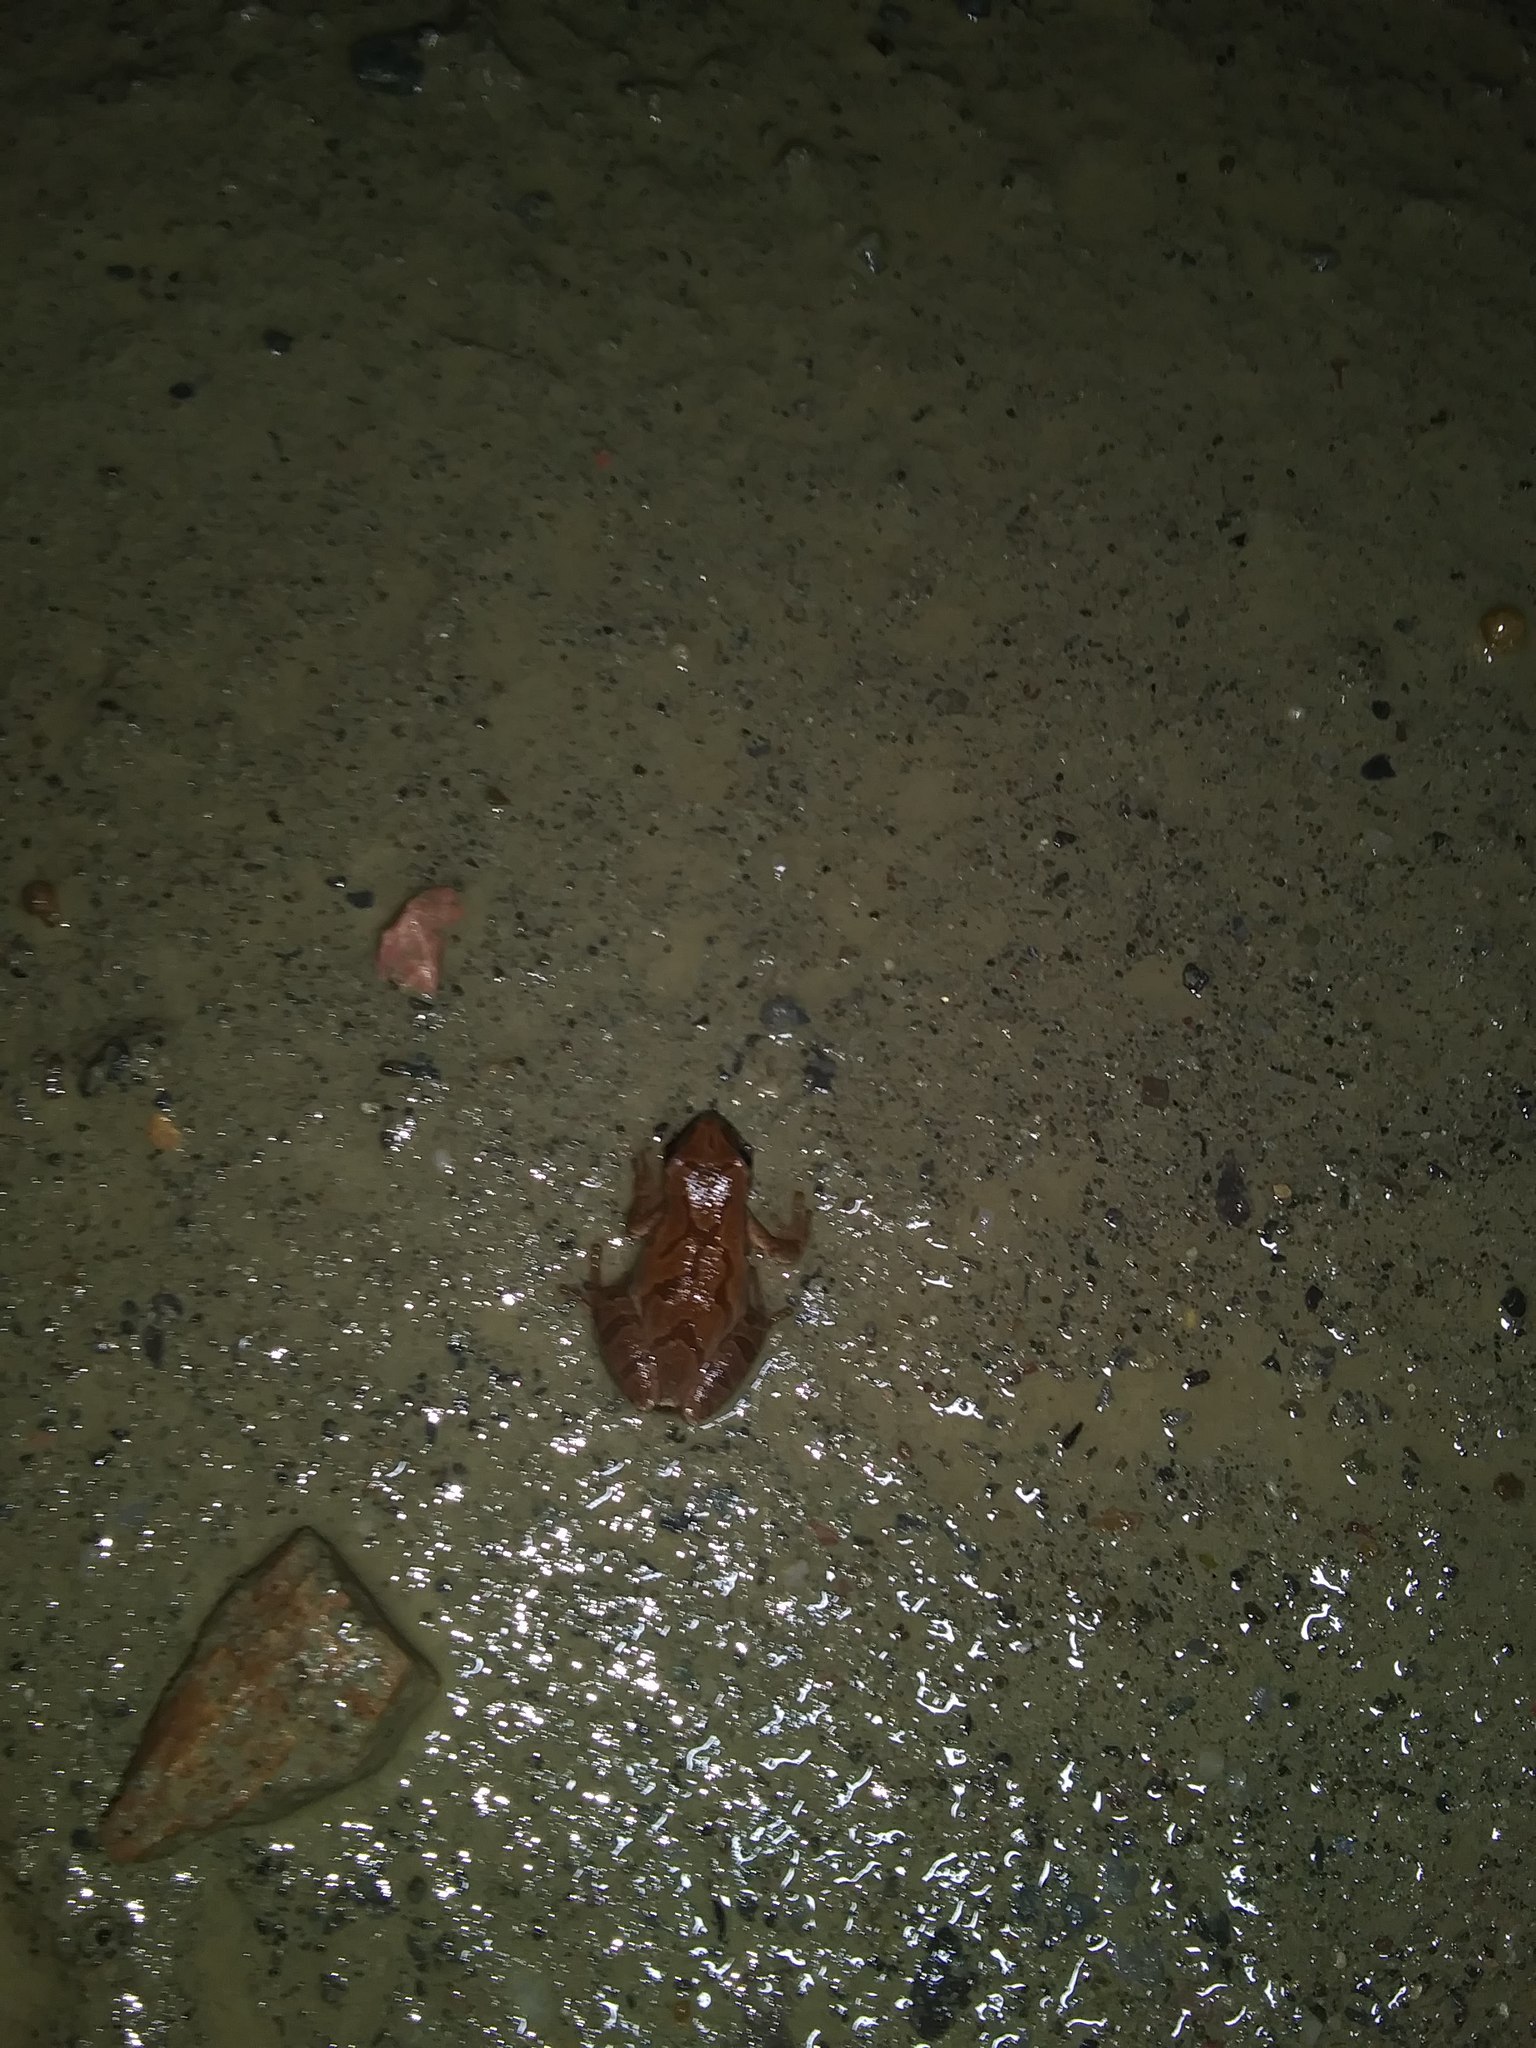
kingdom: Animalia
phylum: Chordata
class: Amphibia
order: Anura
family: Hylidae
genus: Pseudacris
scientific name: Pseudacris crucifer
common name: Spring peeper
